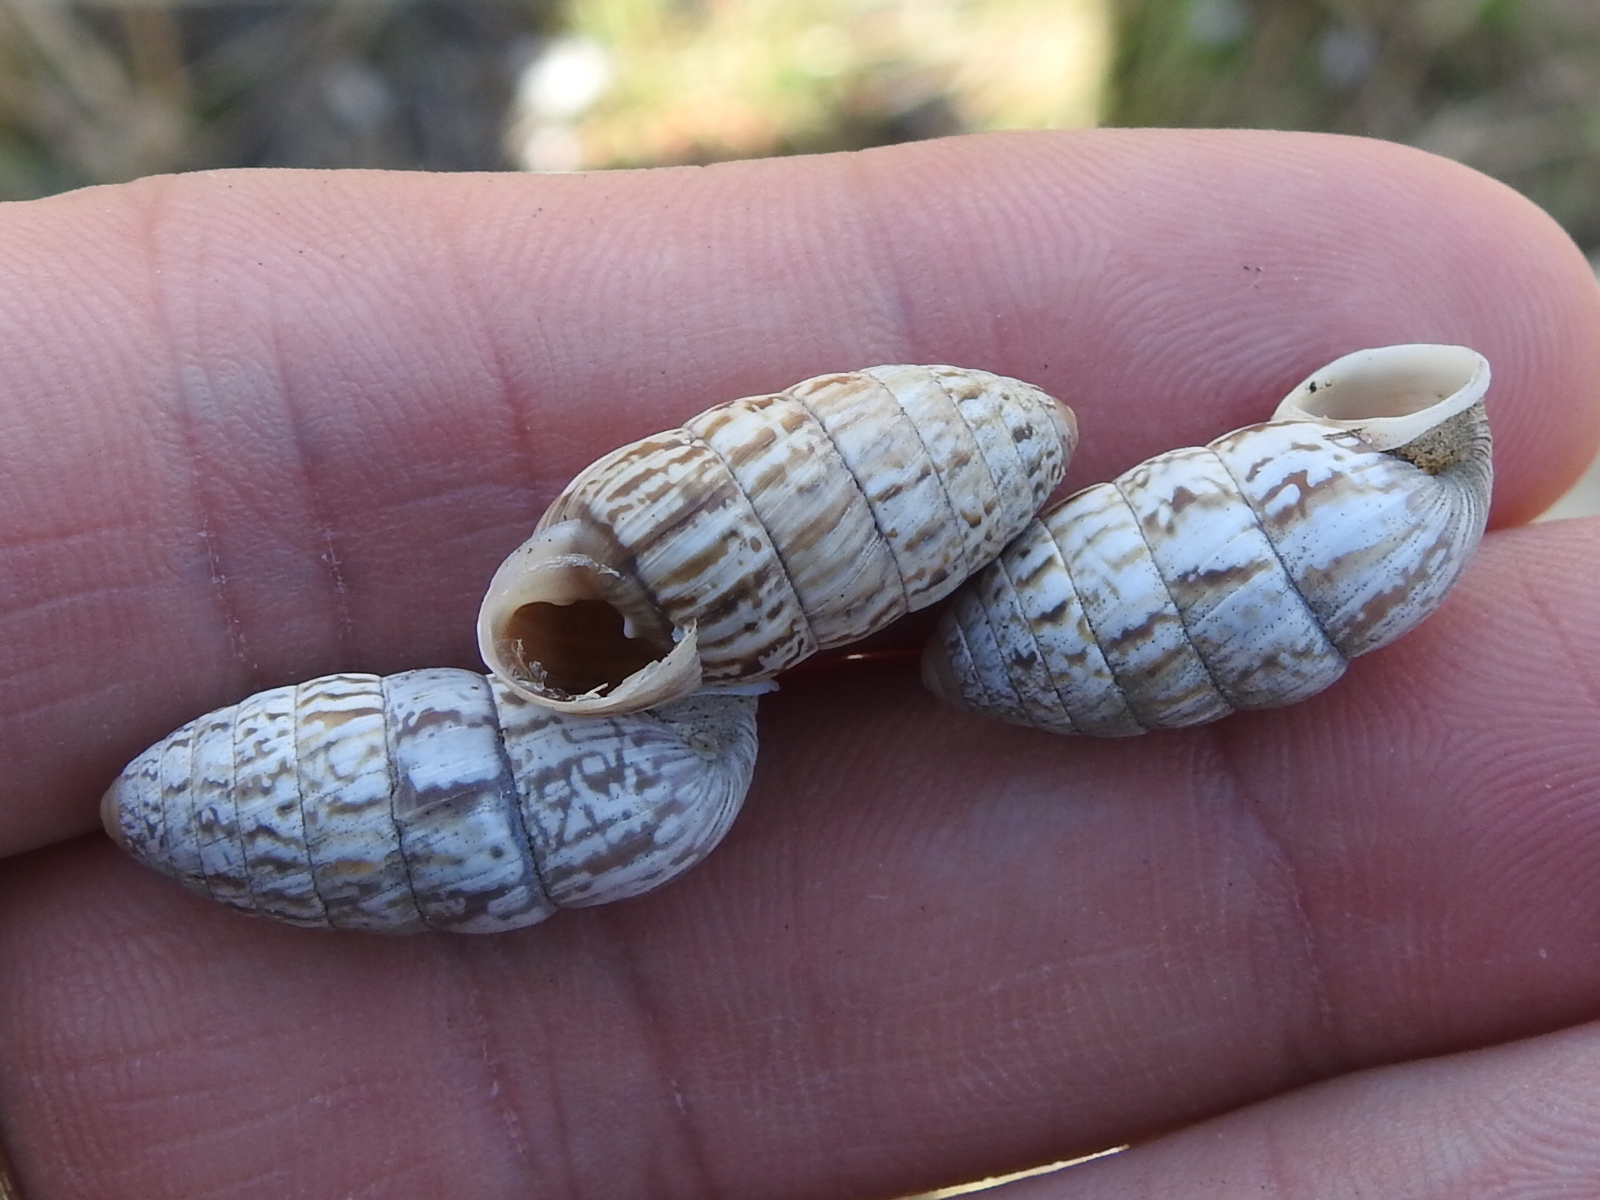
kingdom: Animalia
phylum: Mollusca
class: Gastropoda
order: Stylommatophora
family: Cerionidae
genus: Cerion
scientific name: Cerion incanum
